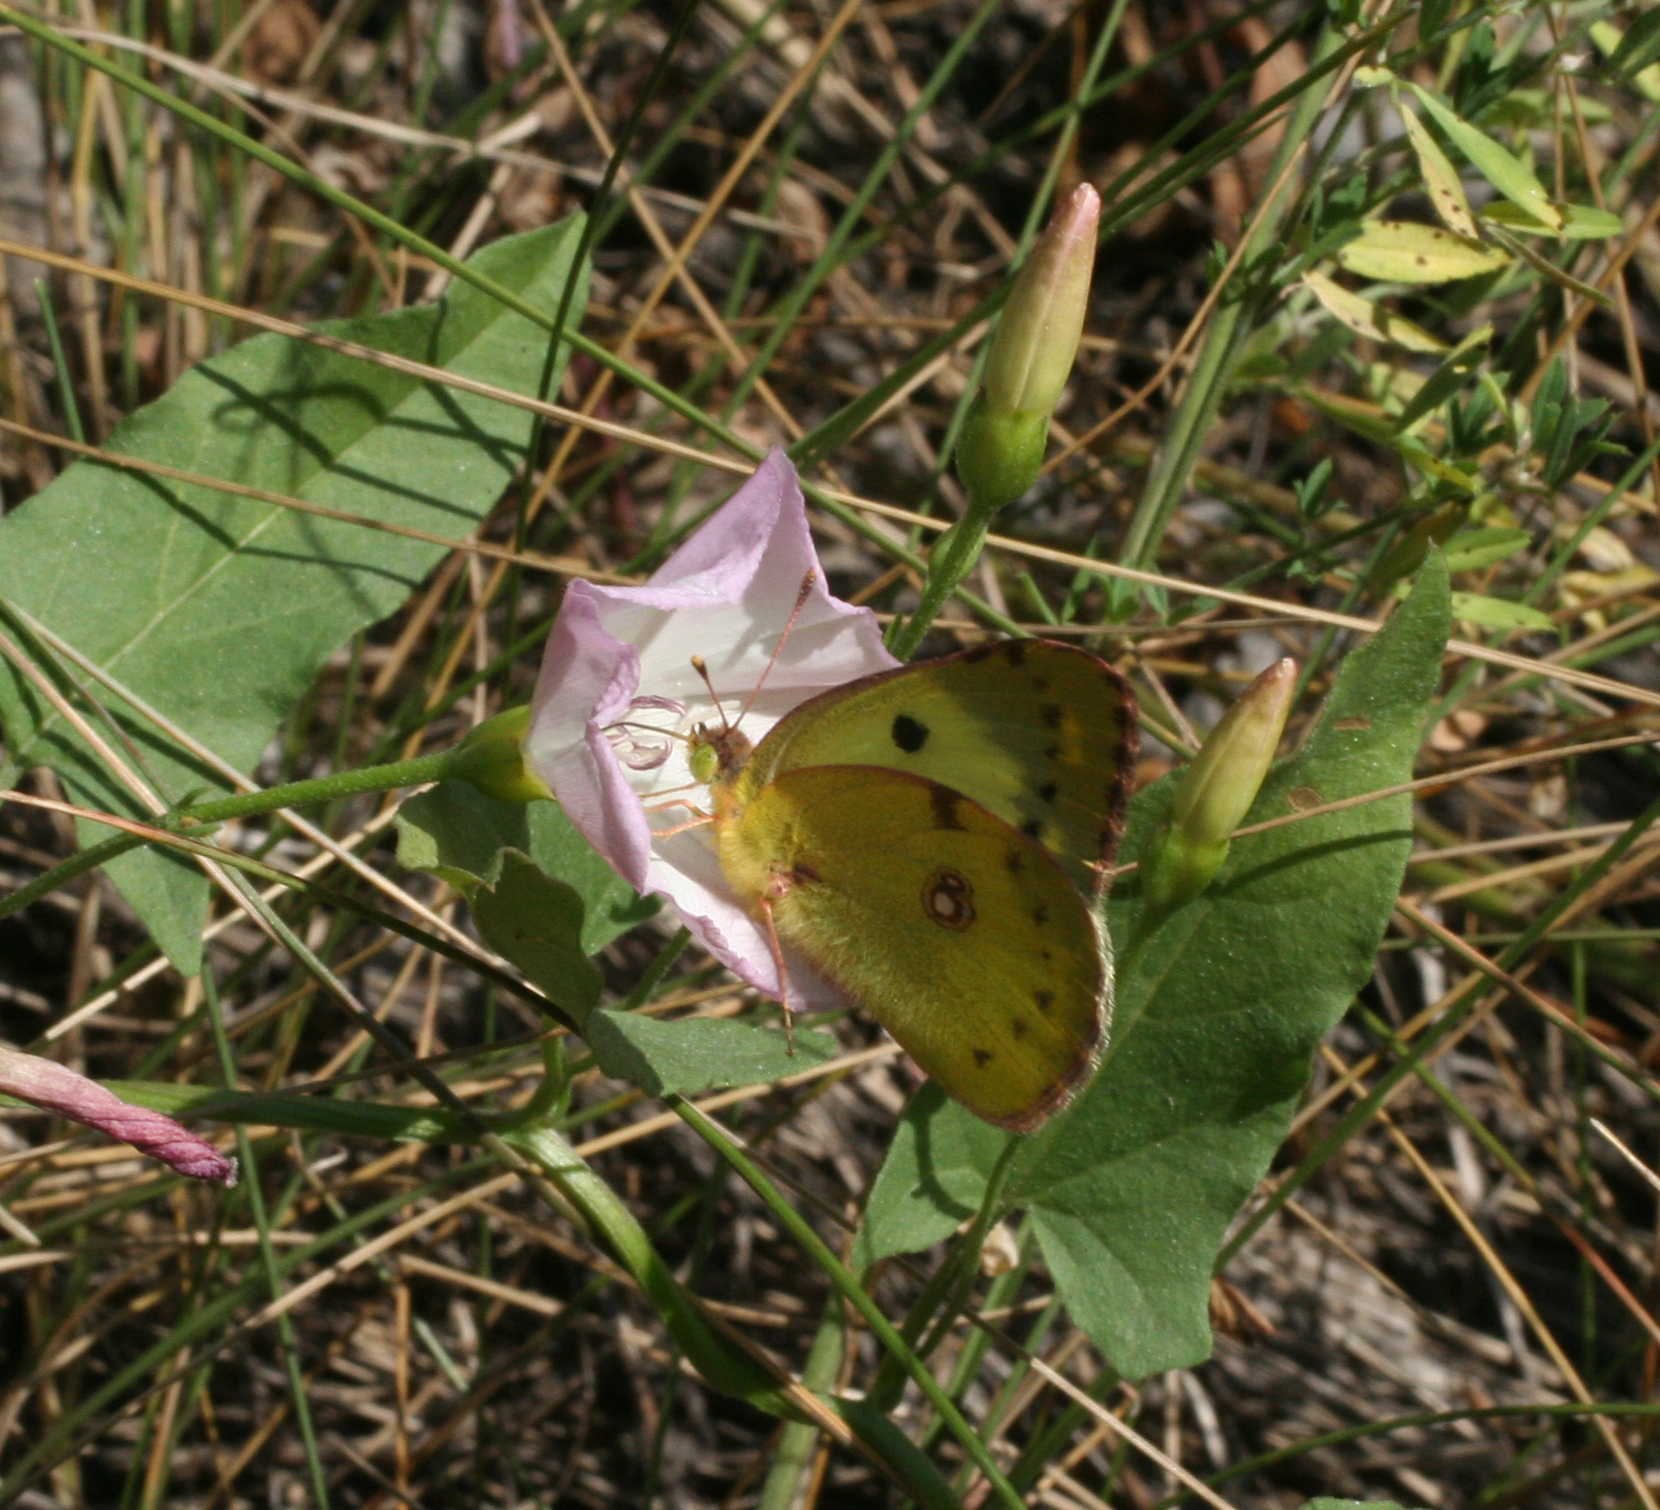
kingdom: Animalia
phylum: Arthropoda
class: Insecta
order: Lepidoptera
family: Pieridae
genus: Colias
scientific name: Colias hyale
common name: Pale clouded yellow
